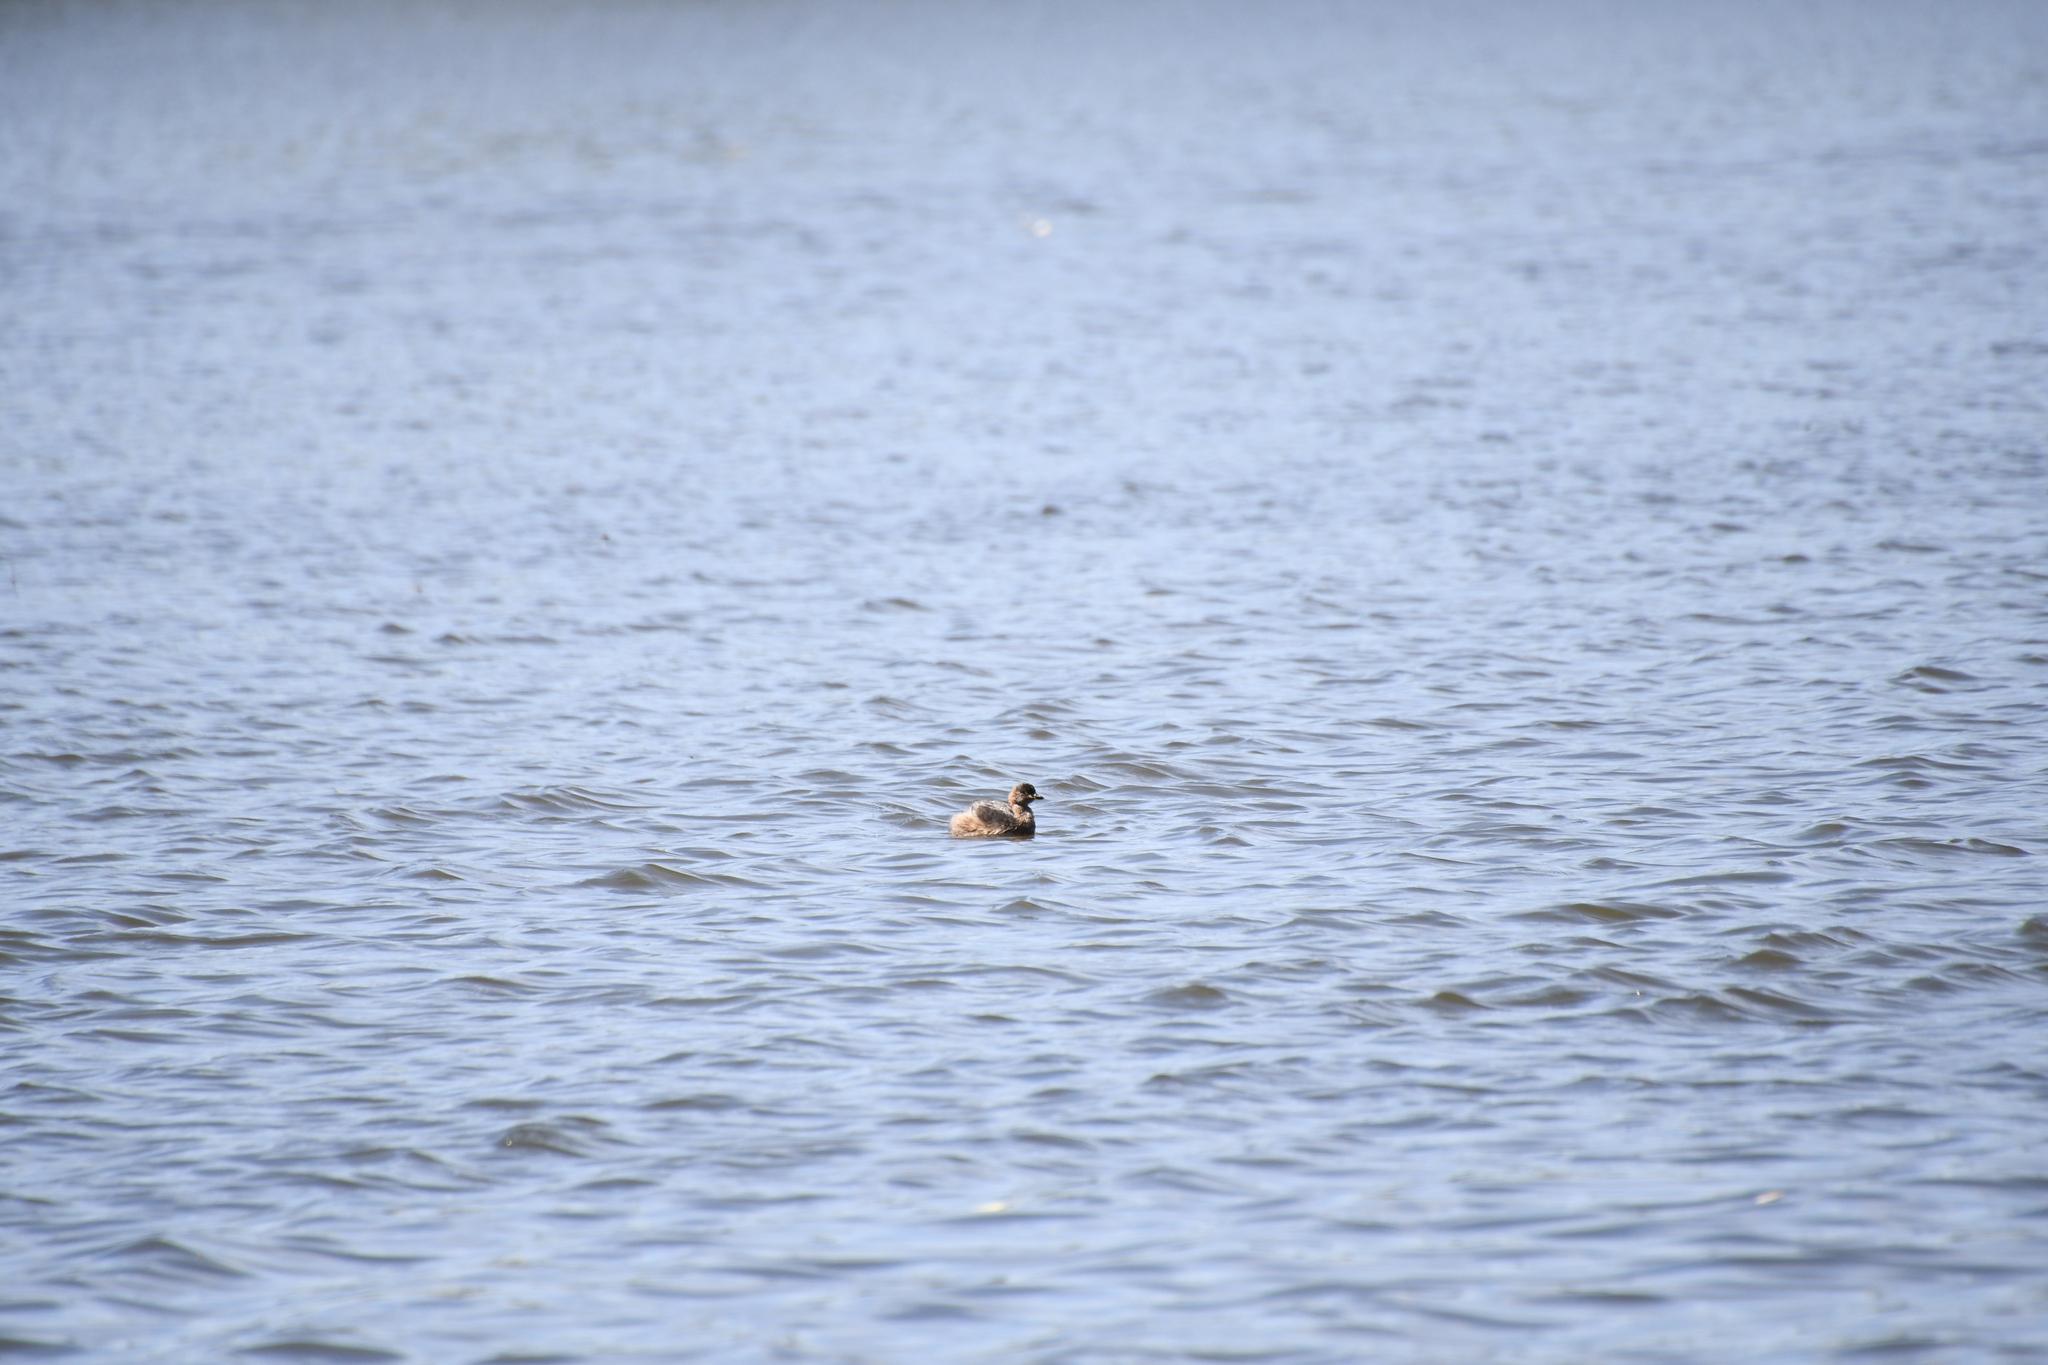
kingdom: Animalia
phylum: Chordata
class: Aves
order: Podicipediformes
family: Podicipedidae
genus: Tachybaptus
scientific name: Tachybaptus novaehollandiae
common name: Australasian grebe
